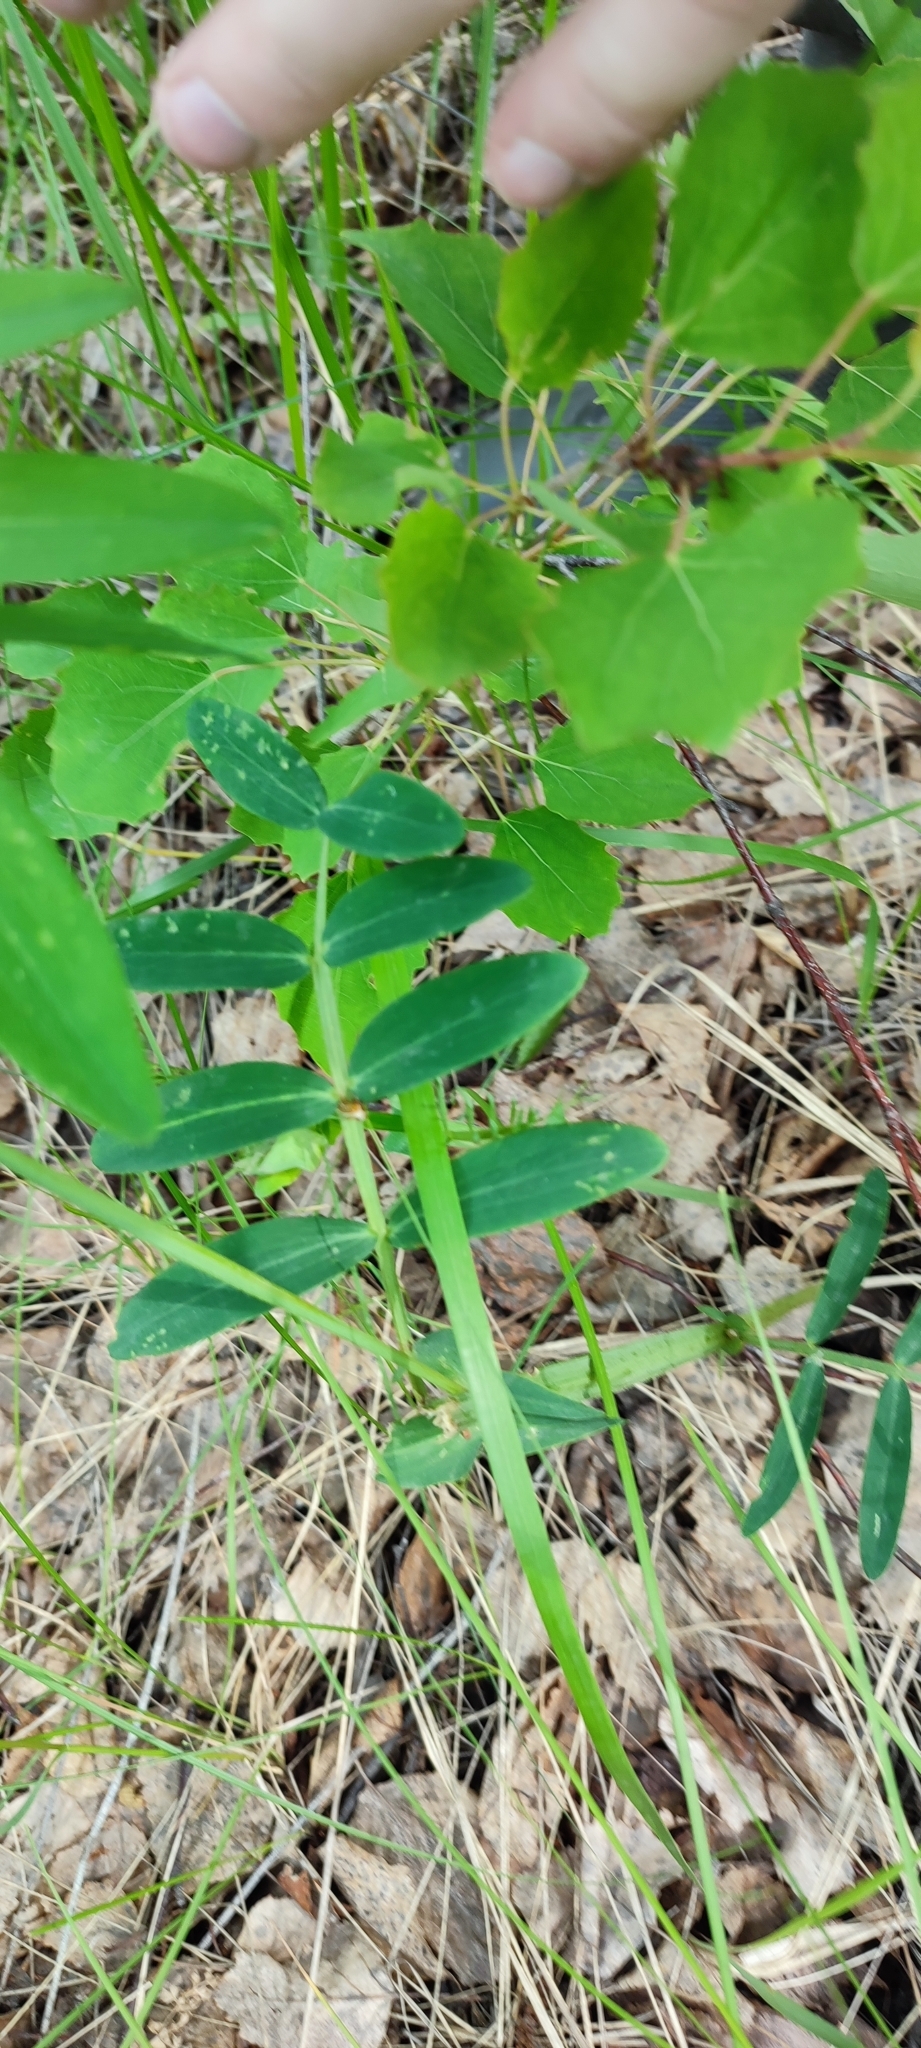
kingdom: Plantae
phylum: Tracheophyta
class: Magnoliopsida
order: Fabales
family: Fabaceae
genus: Lathyrus
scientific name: Lathyrus pisiformis
